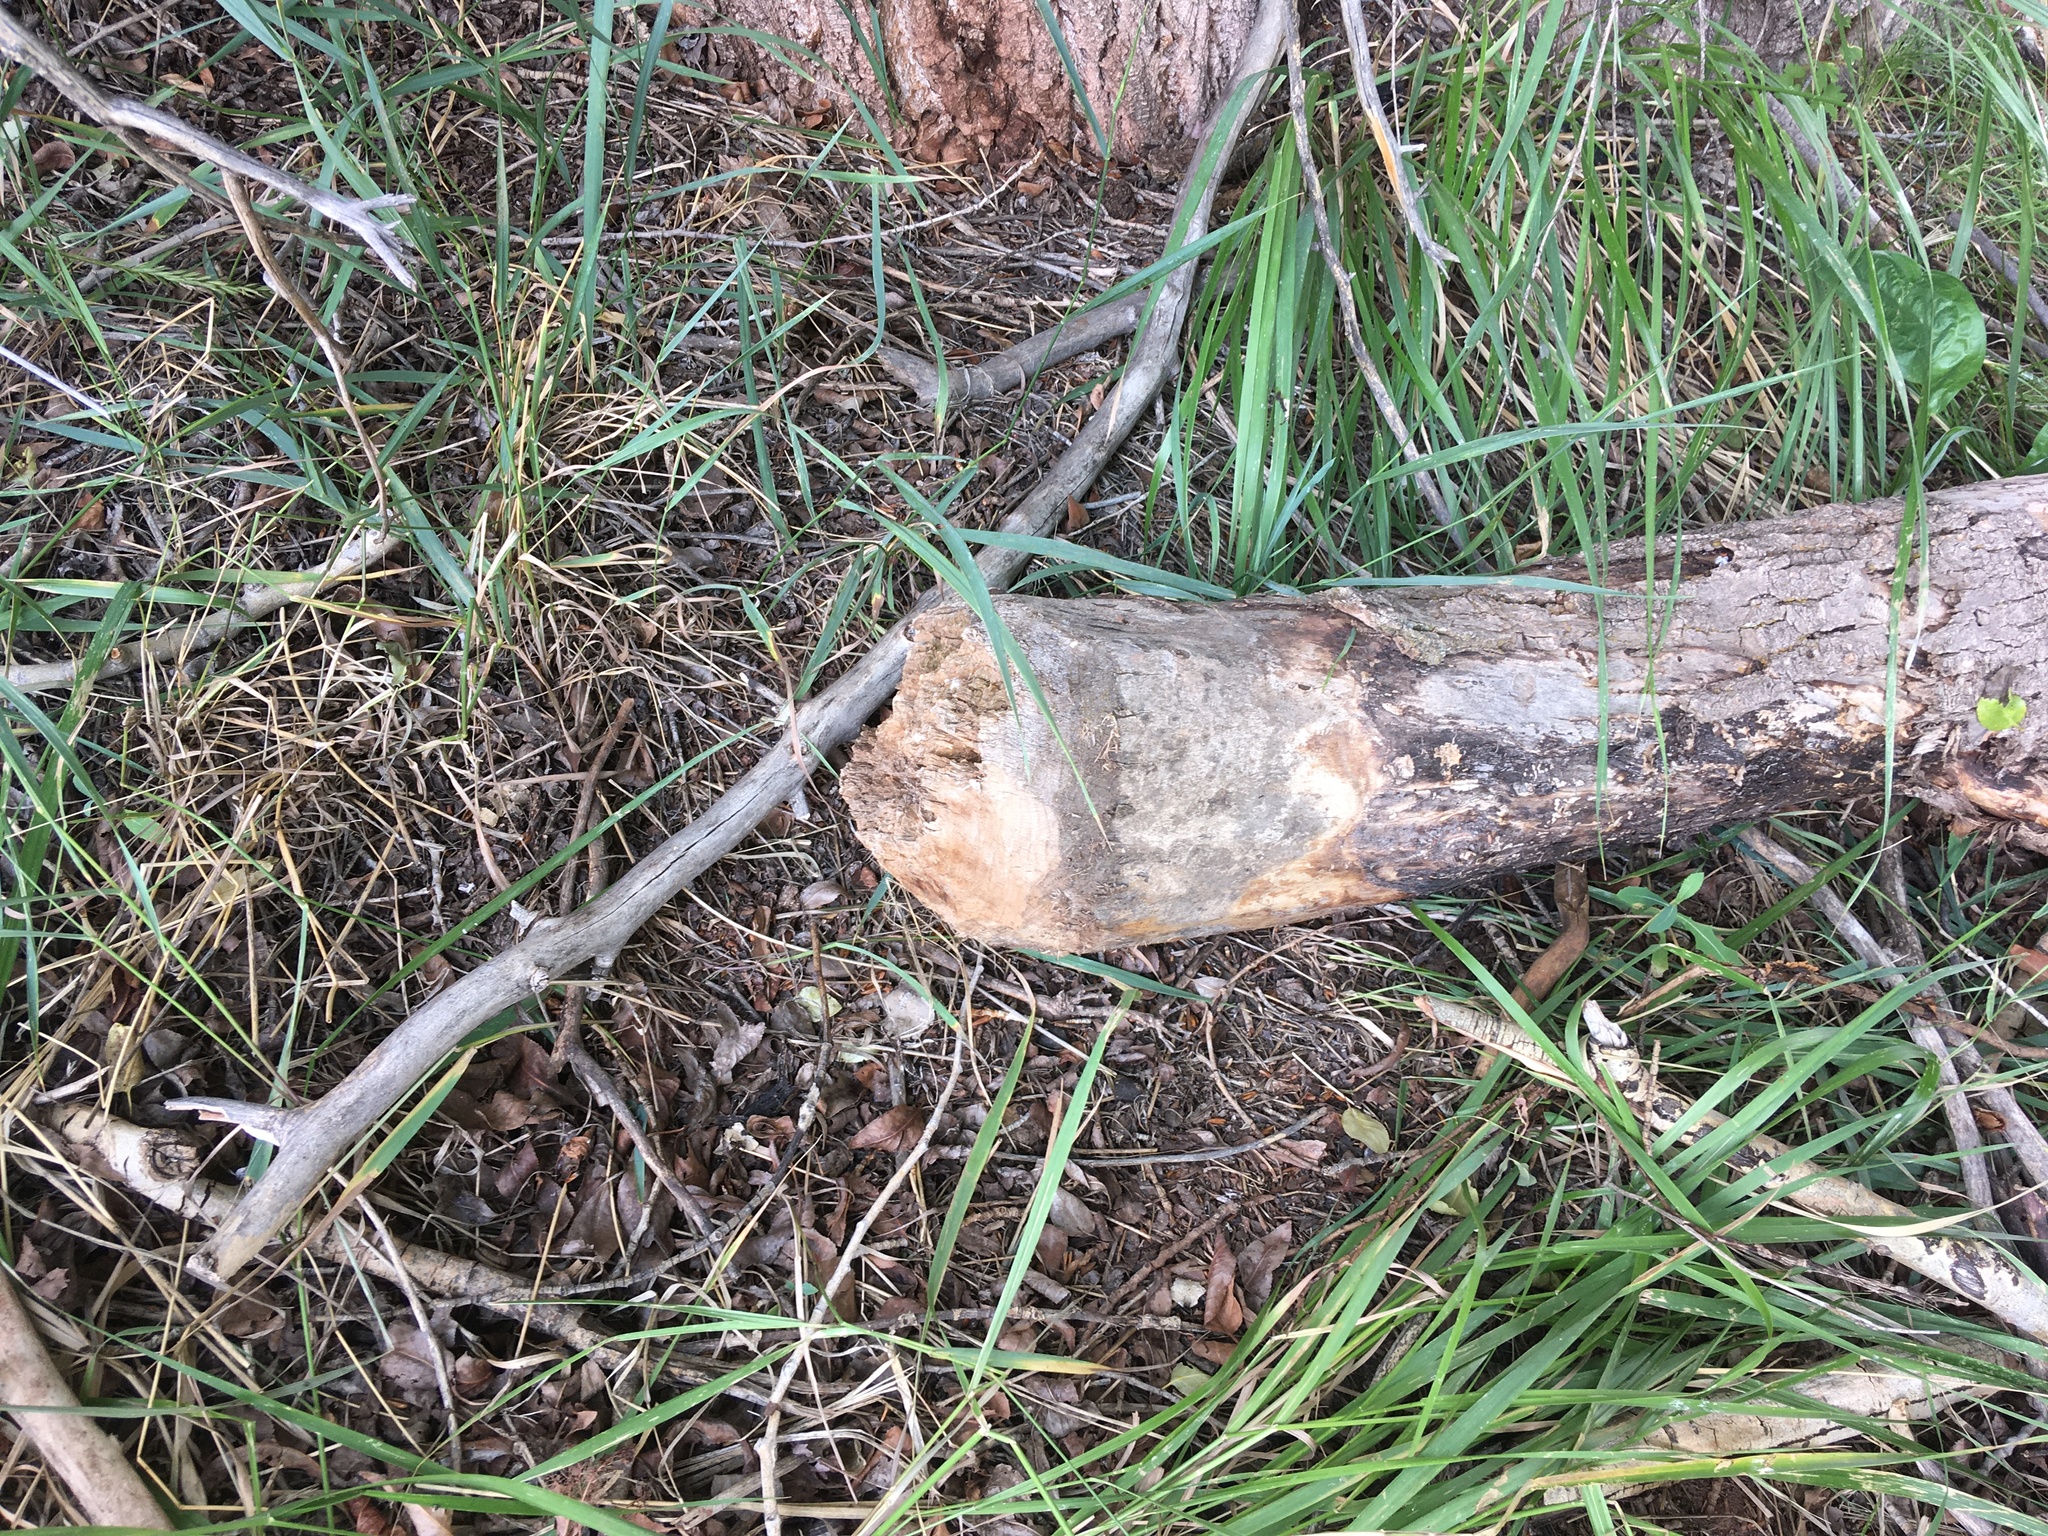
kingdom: Animalia
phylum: Chordata
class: Mammalia
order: Rodentia
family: Castoridae
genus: Castor
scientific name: Castor canadensis
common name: American beaver
